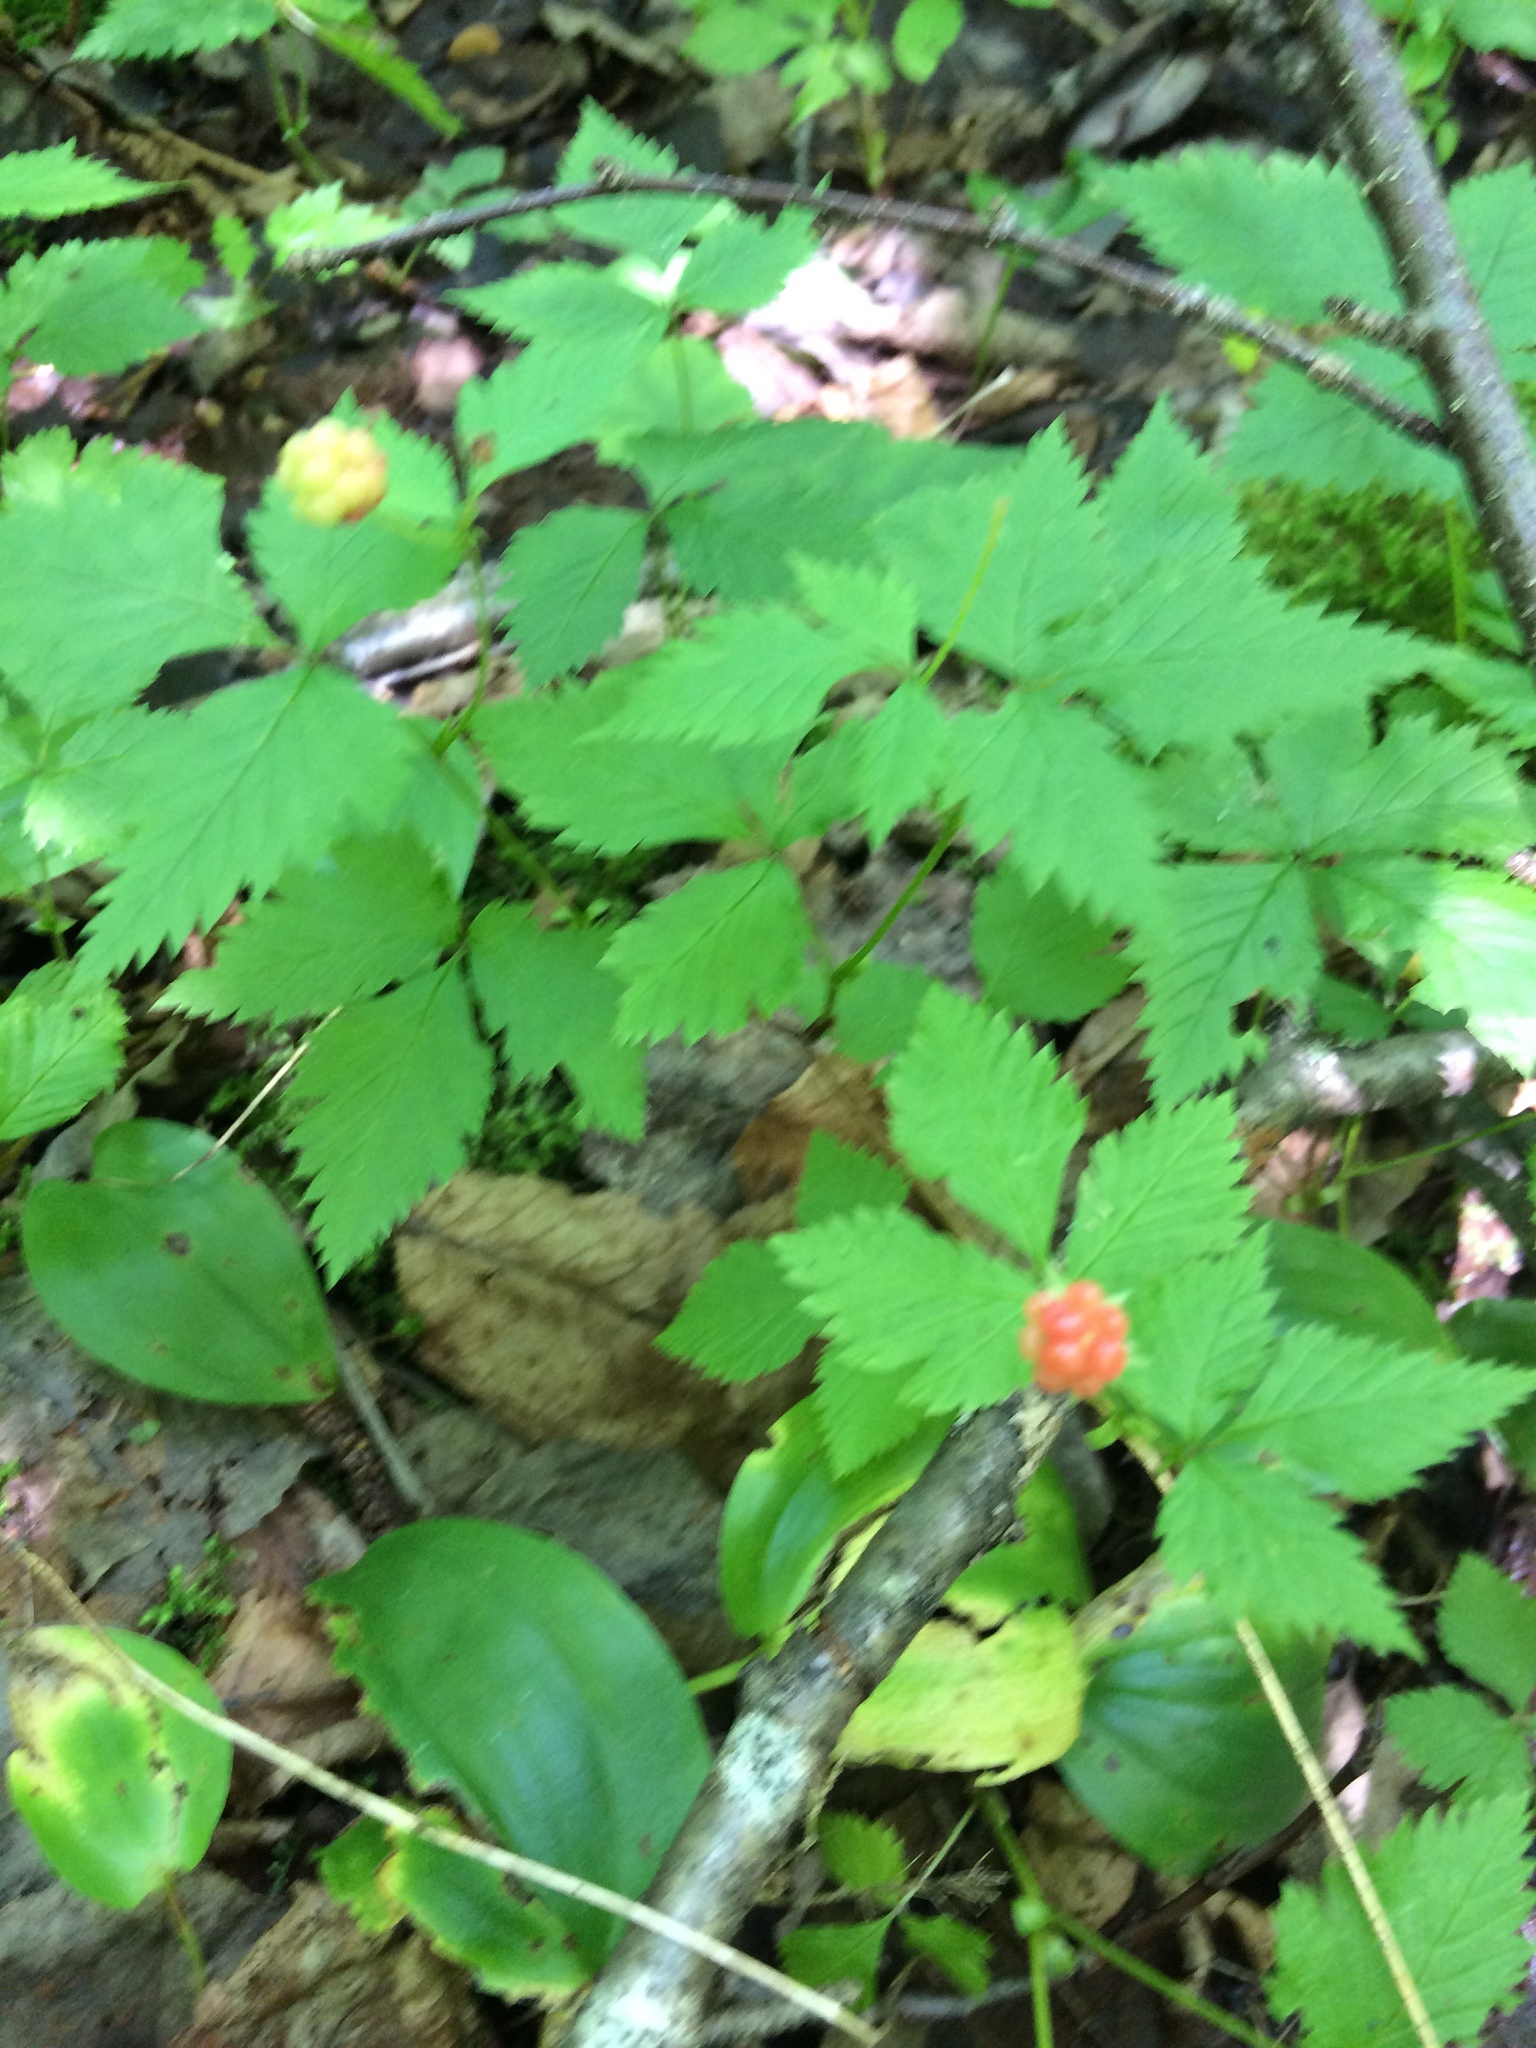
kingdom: Plantae
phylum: Tracheophyta
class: Magnoliopsida
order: Rosales
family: Rosaceae
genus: Rubus
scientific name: Rubus pubescens
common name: Dwarf raspberry
